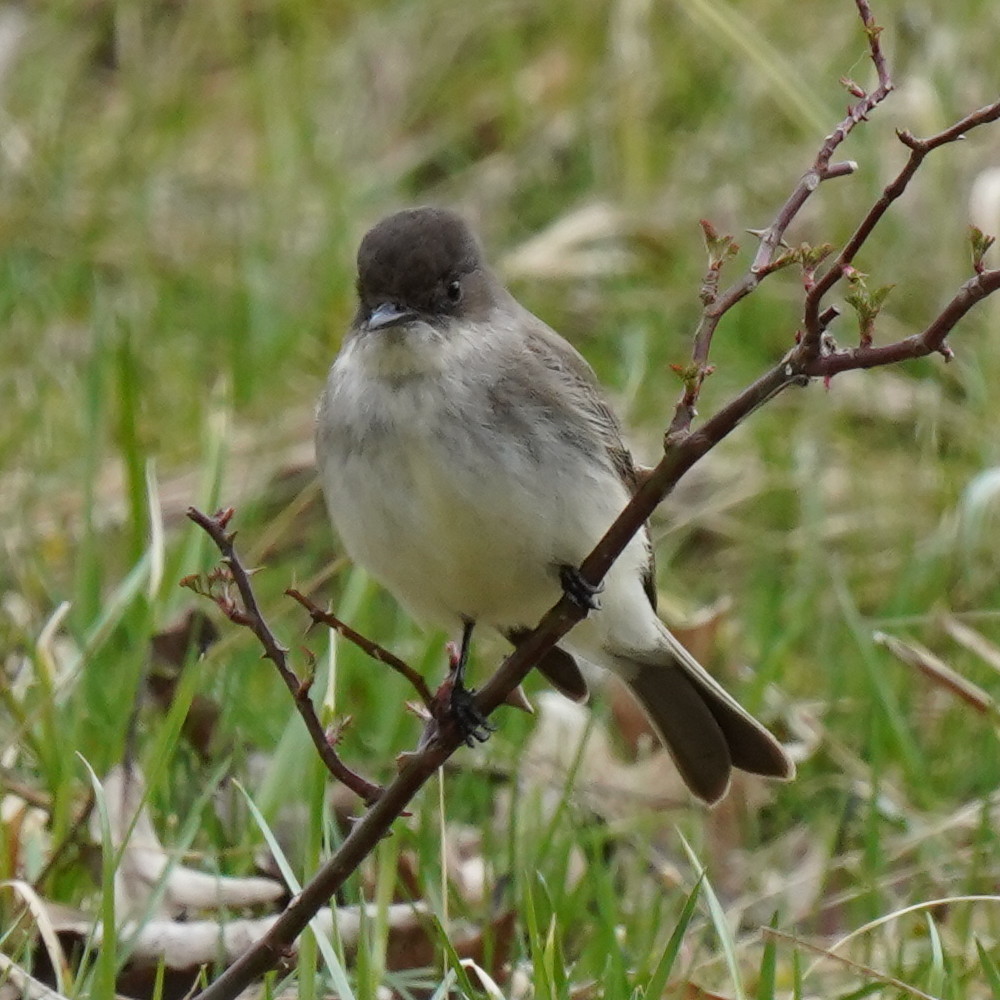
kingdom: Animalia
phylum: Chordata
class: Aves
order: Passeriformes
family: Tyrannidae
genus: Sayornis
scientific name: Sayornis phoebe
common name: Eastern phoebe
